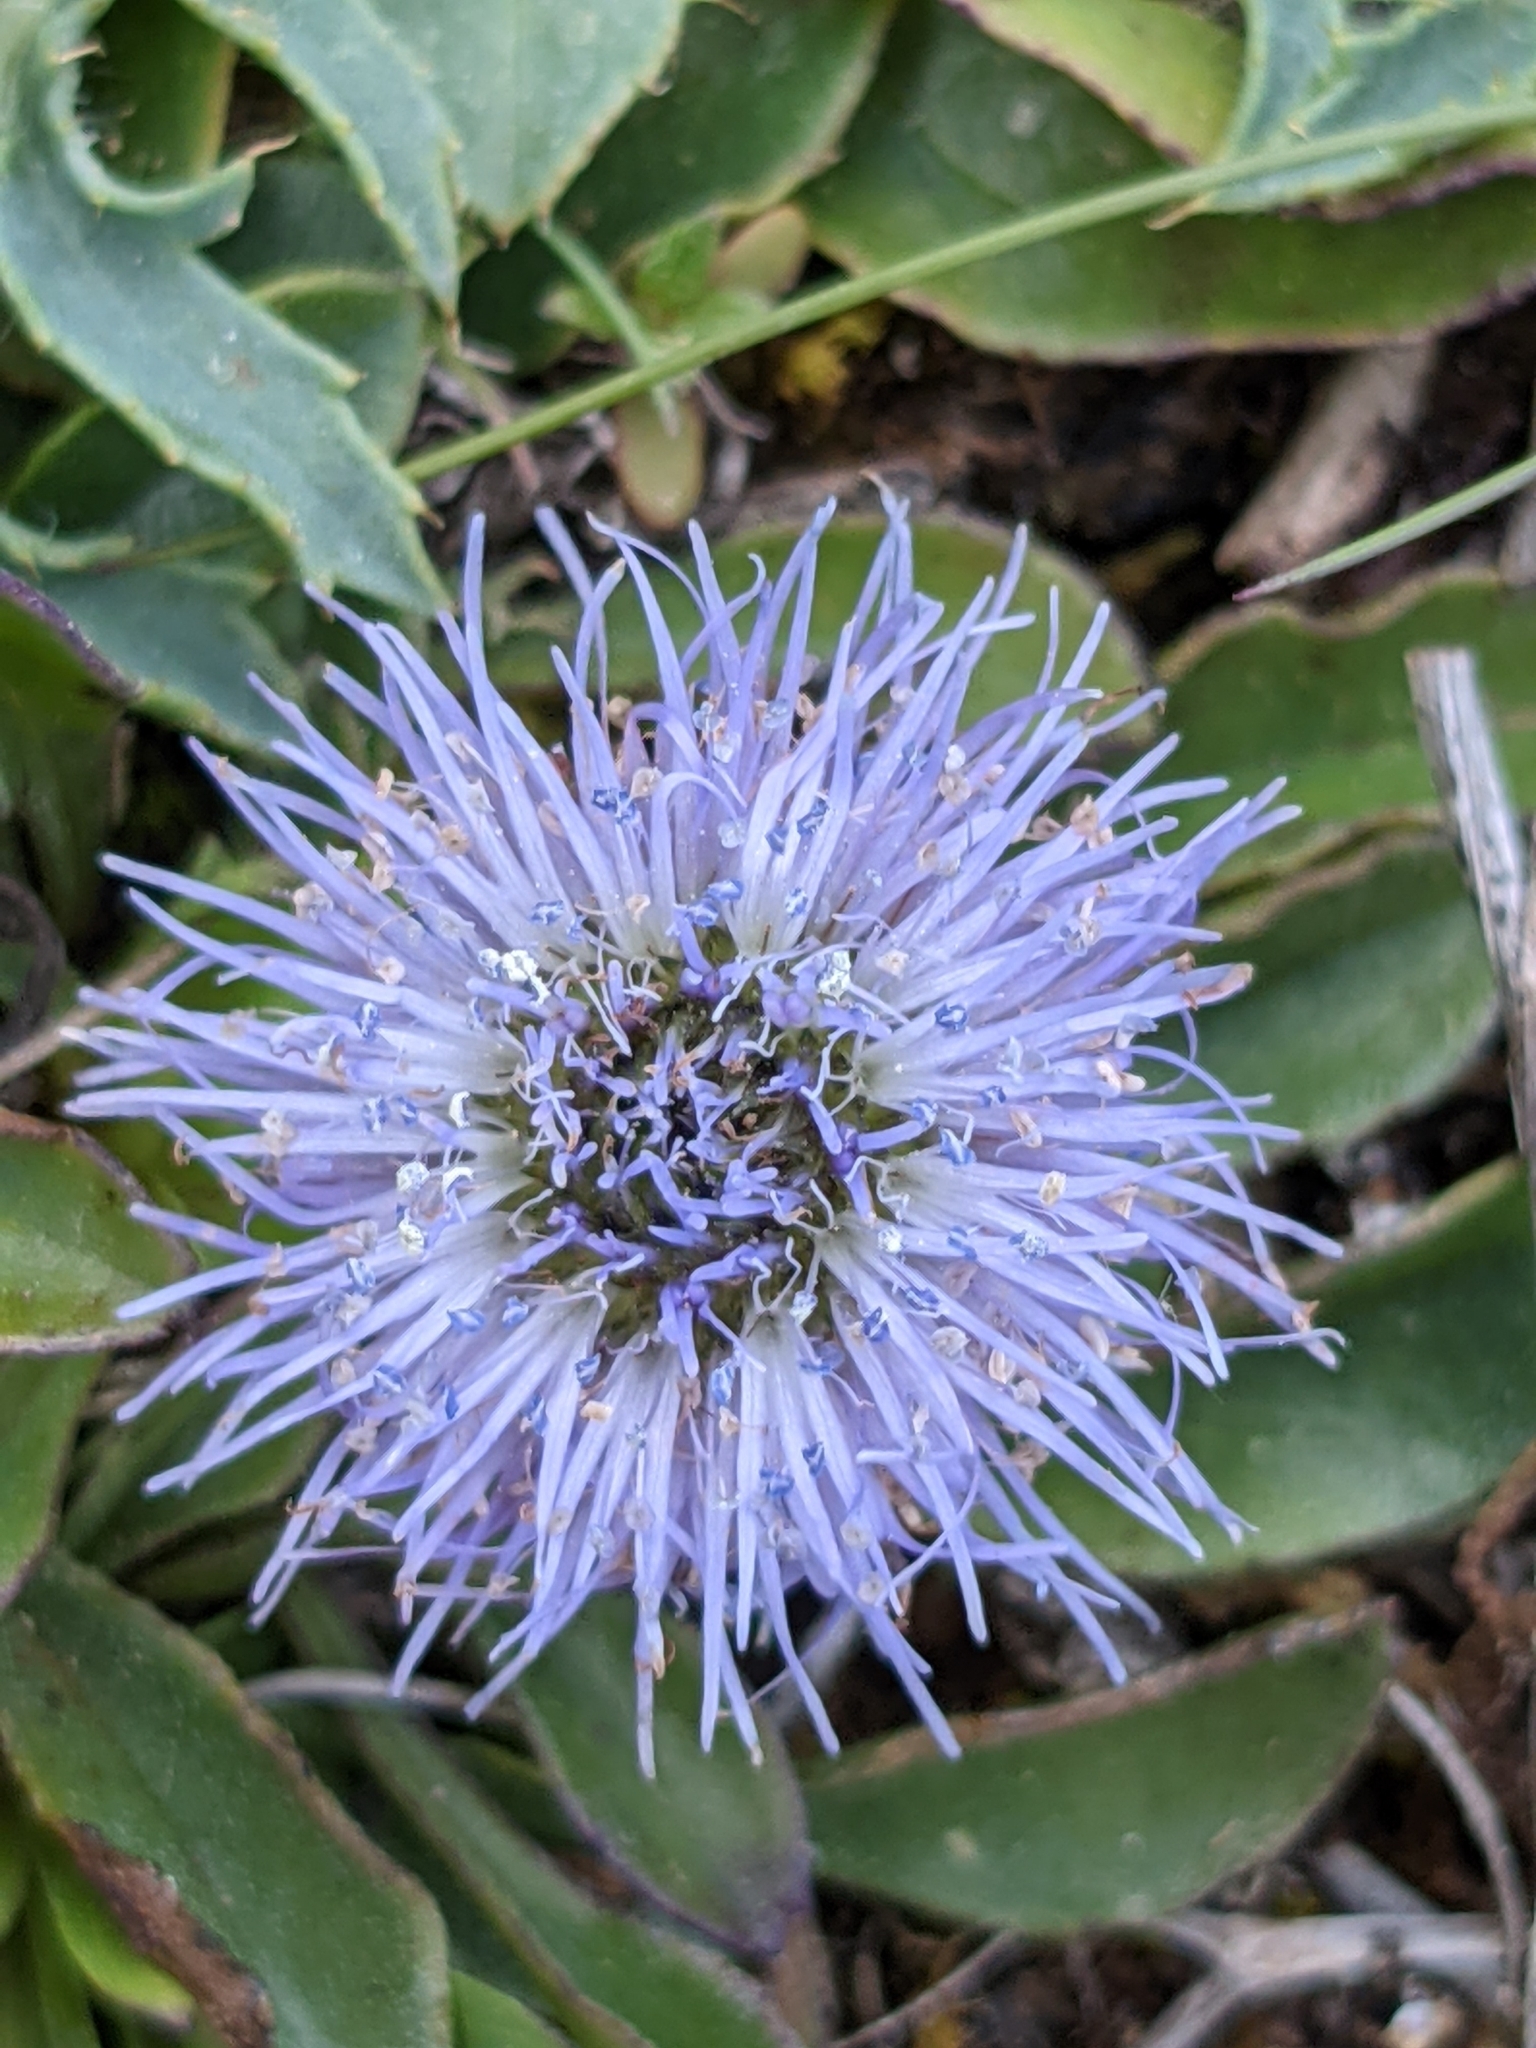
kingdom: Plantae
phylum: Tracheophyta
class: Magnoliopsida
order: Lamiales
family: Plantaginaceae
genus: Globularia
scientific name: Globularia vulgaris
